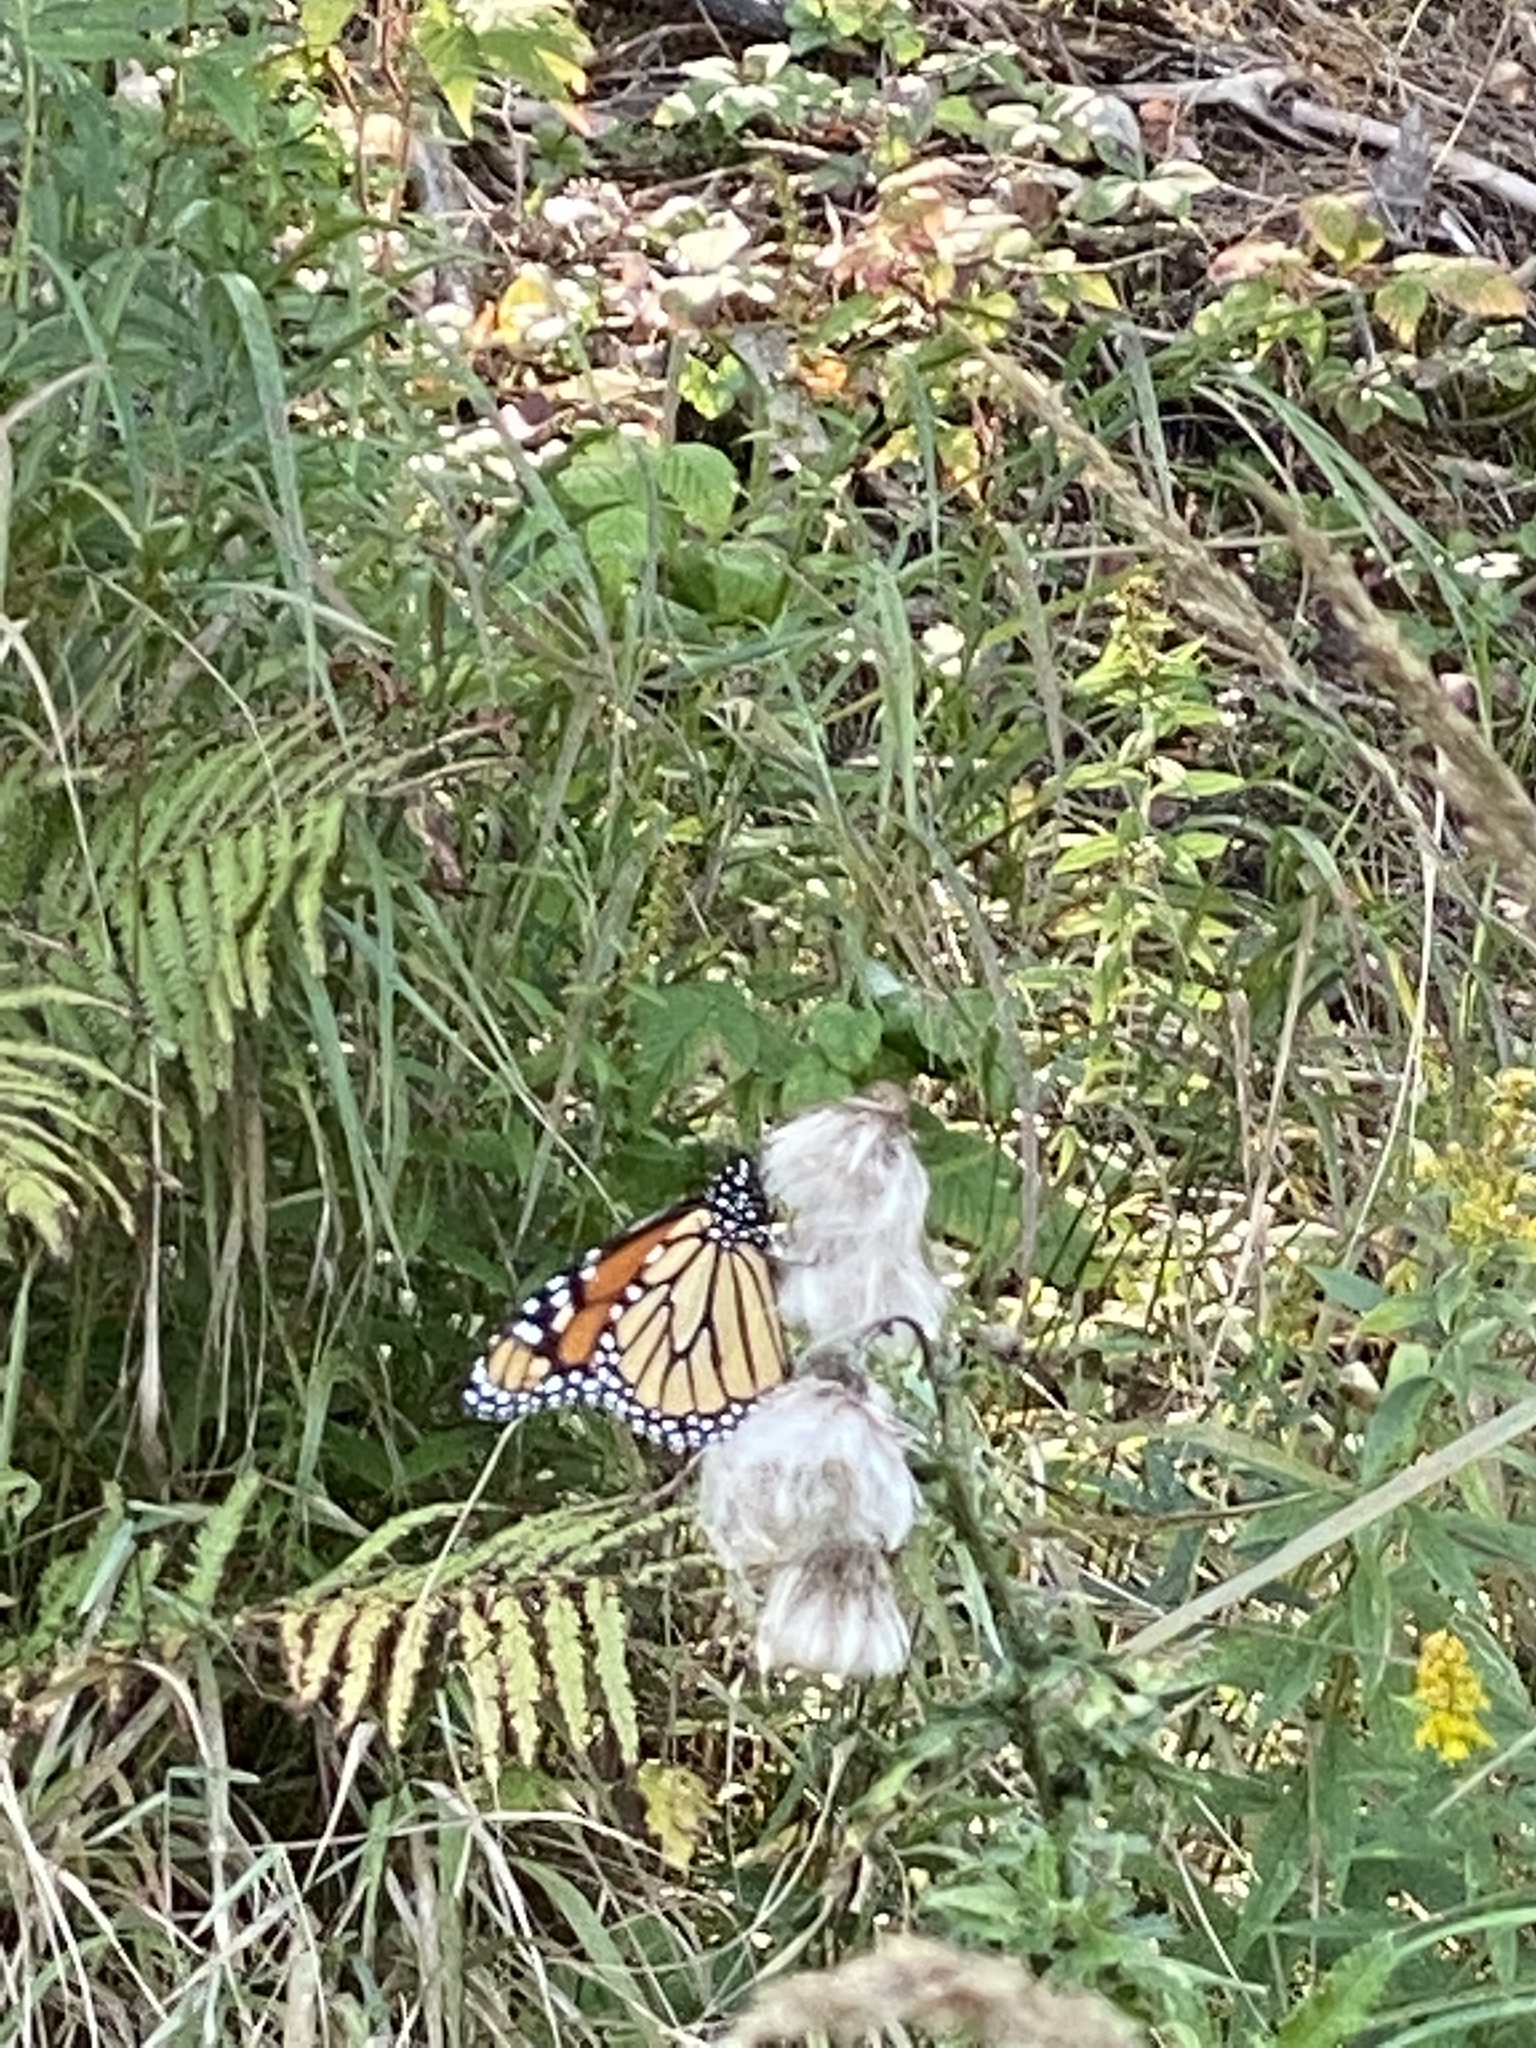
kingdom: Animalia
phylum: Arthropoda
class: Insecta
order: Lepidoptera
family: Nymphalidae
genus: Danaus
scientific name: Danaus plexippus
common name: Monarch
